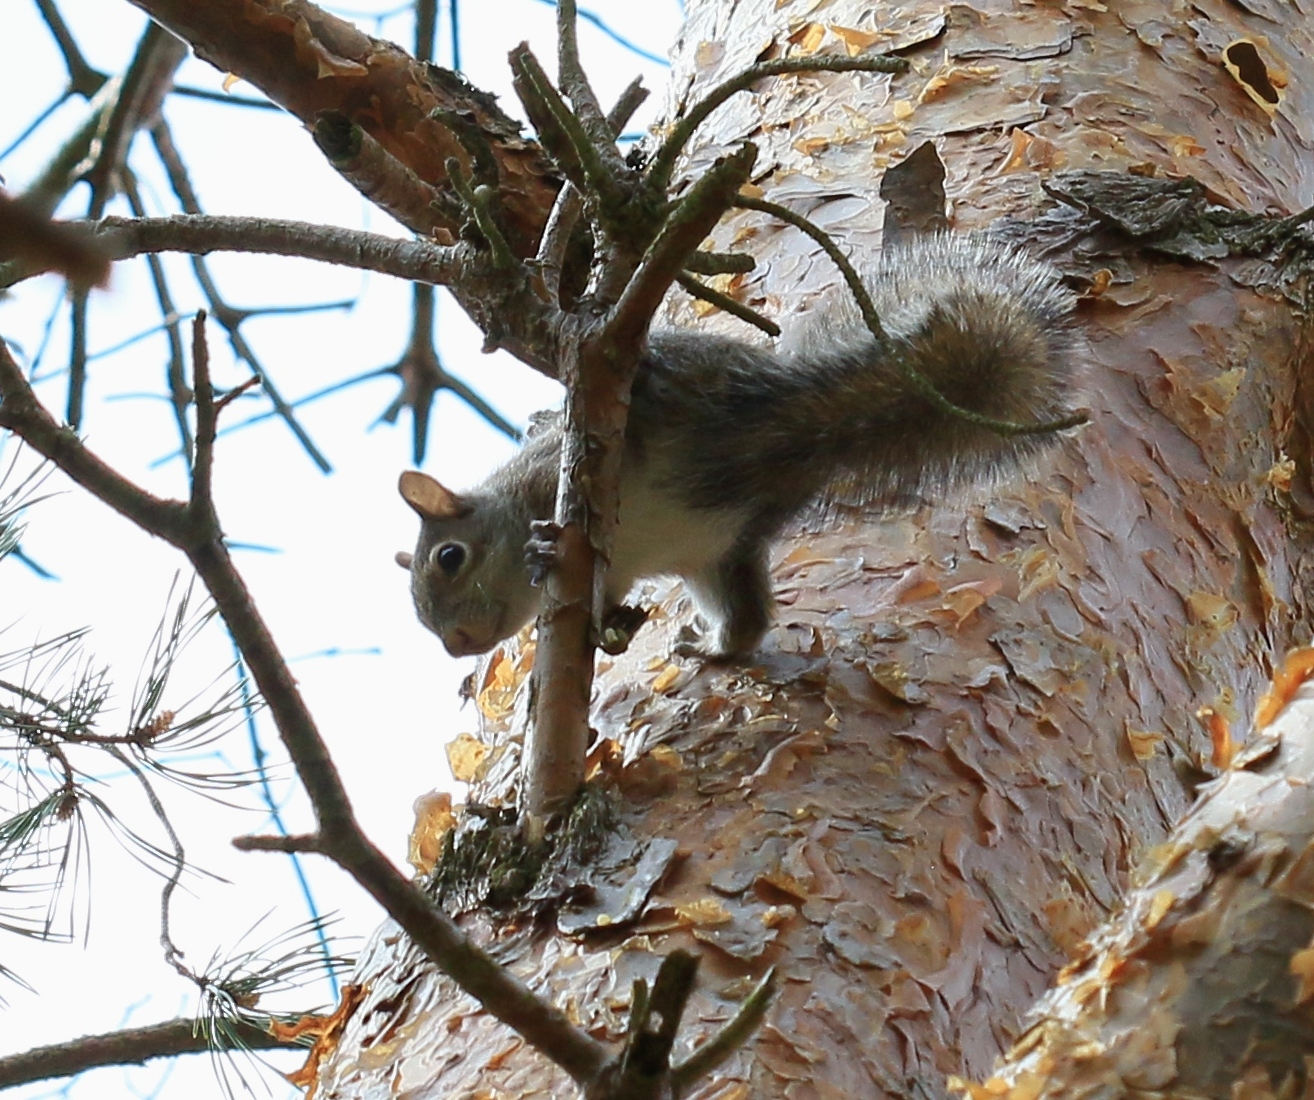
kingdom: Animalia
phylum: Chordata
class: Mammalia
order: Rodentia
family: Sciuridae
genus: Sciurus
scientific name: Sciurus carolinensis
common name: Eastern gray squirrel
